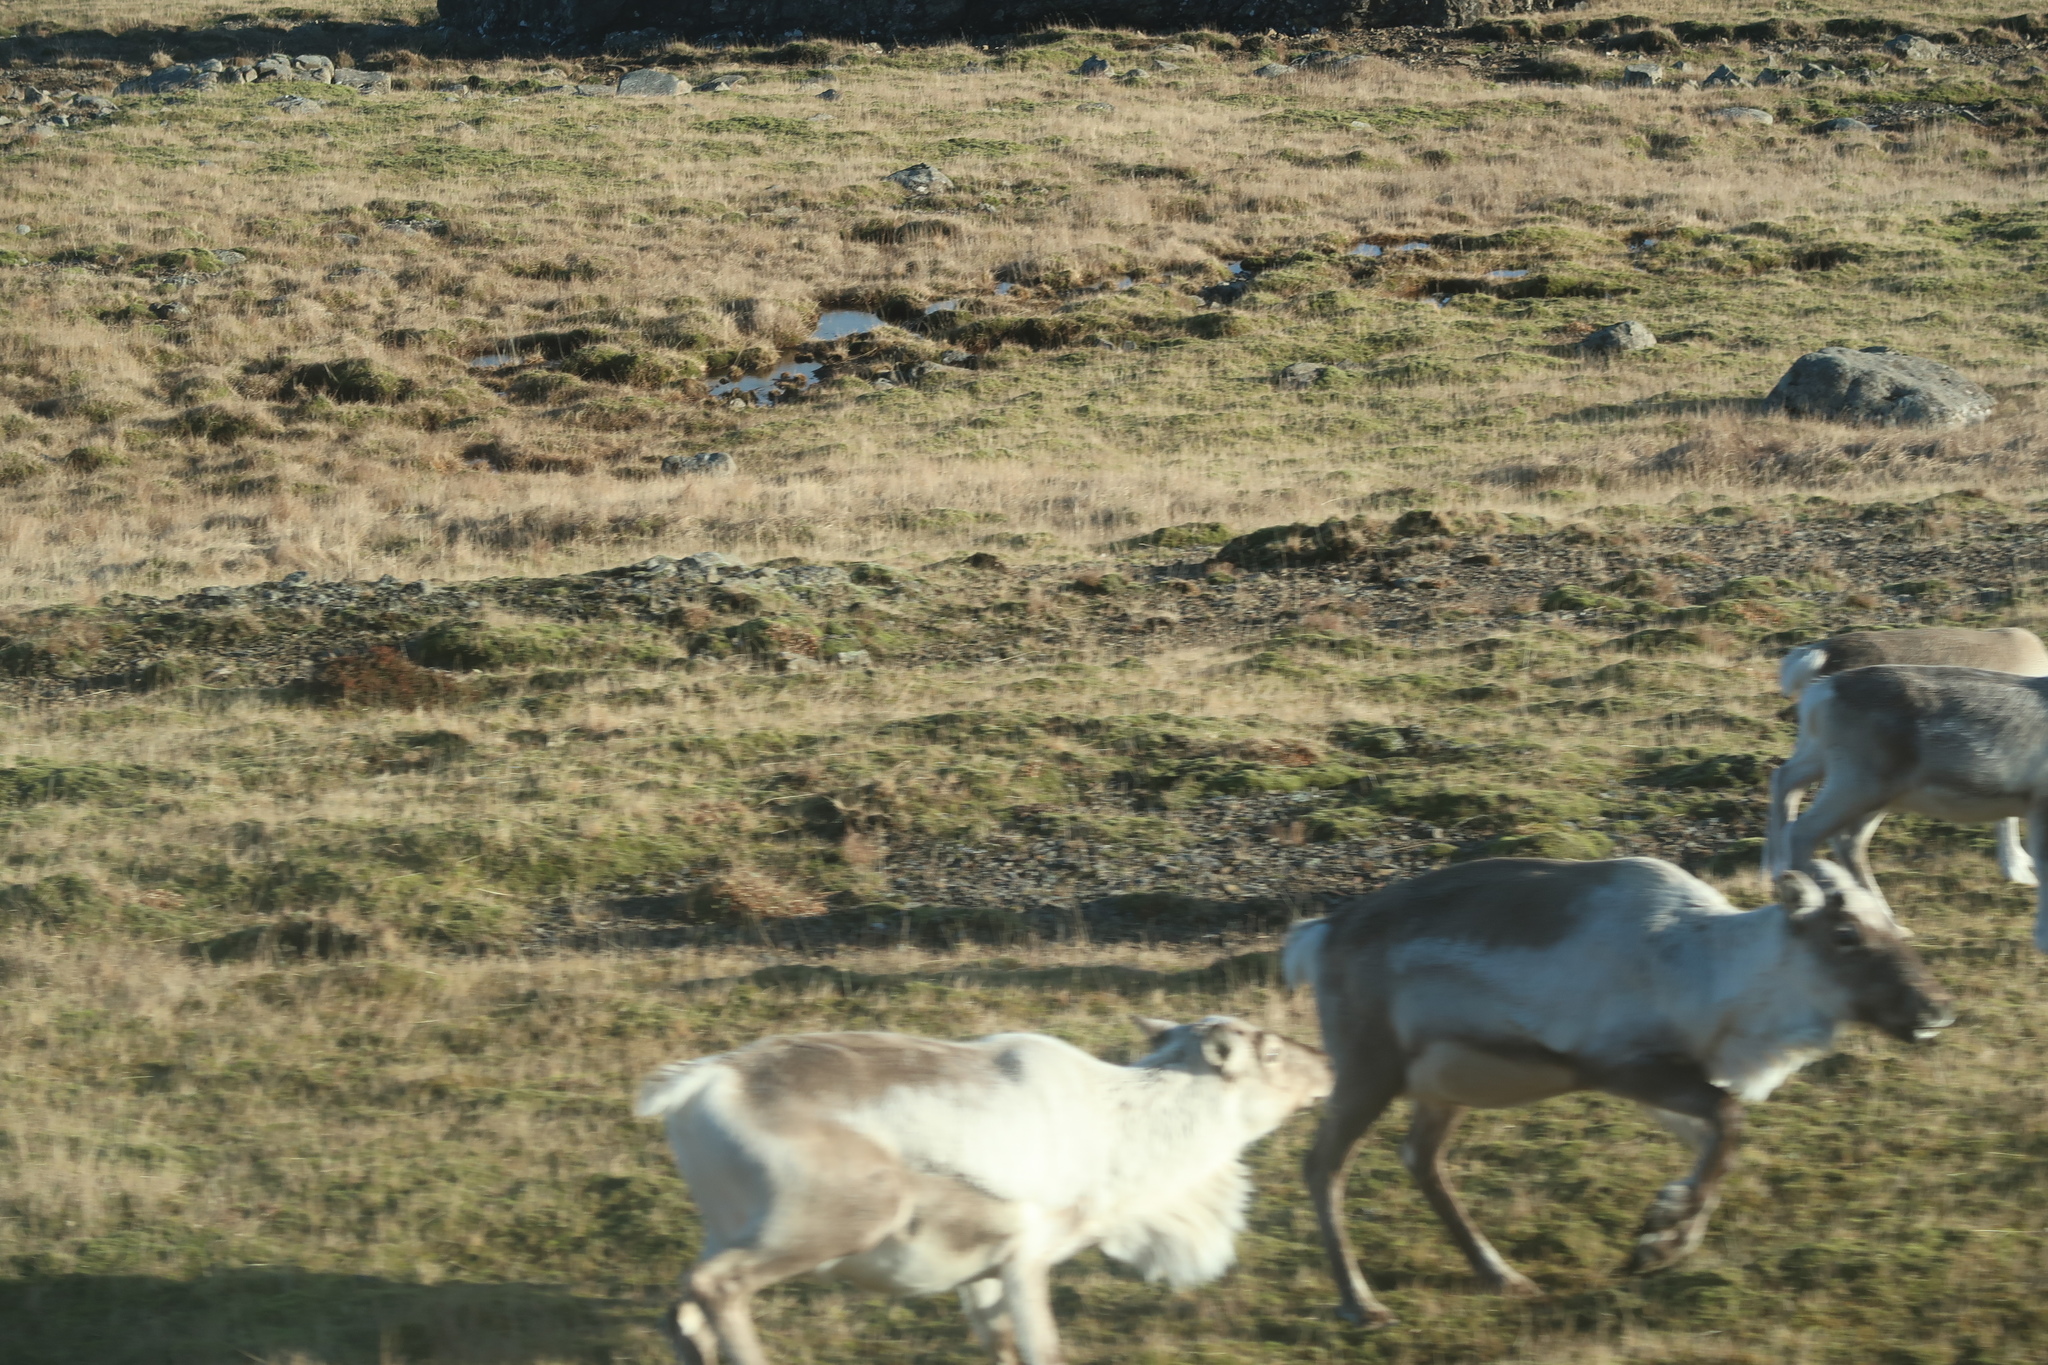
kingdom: Animalia
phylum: Chordata
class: Mammalia
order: Artiodactyla
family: Cervidae
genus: Rangifer
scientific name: Rangifer tarandus
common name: Reindeer
